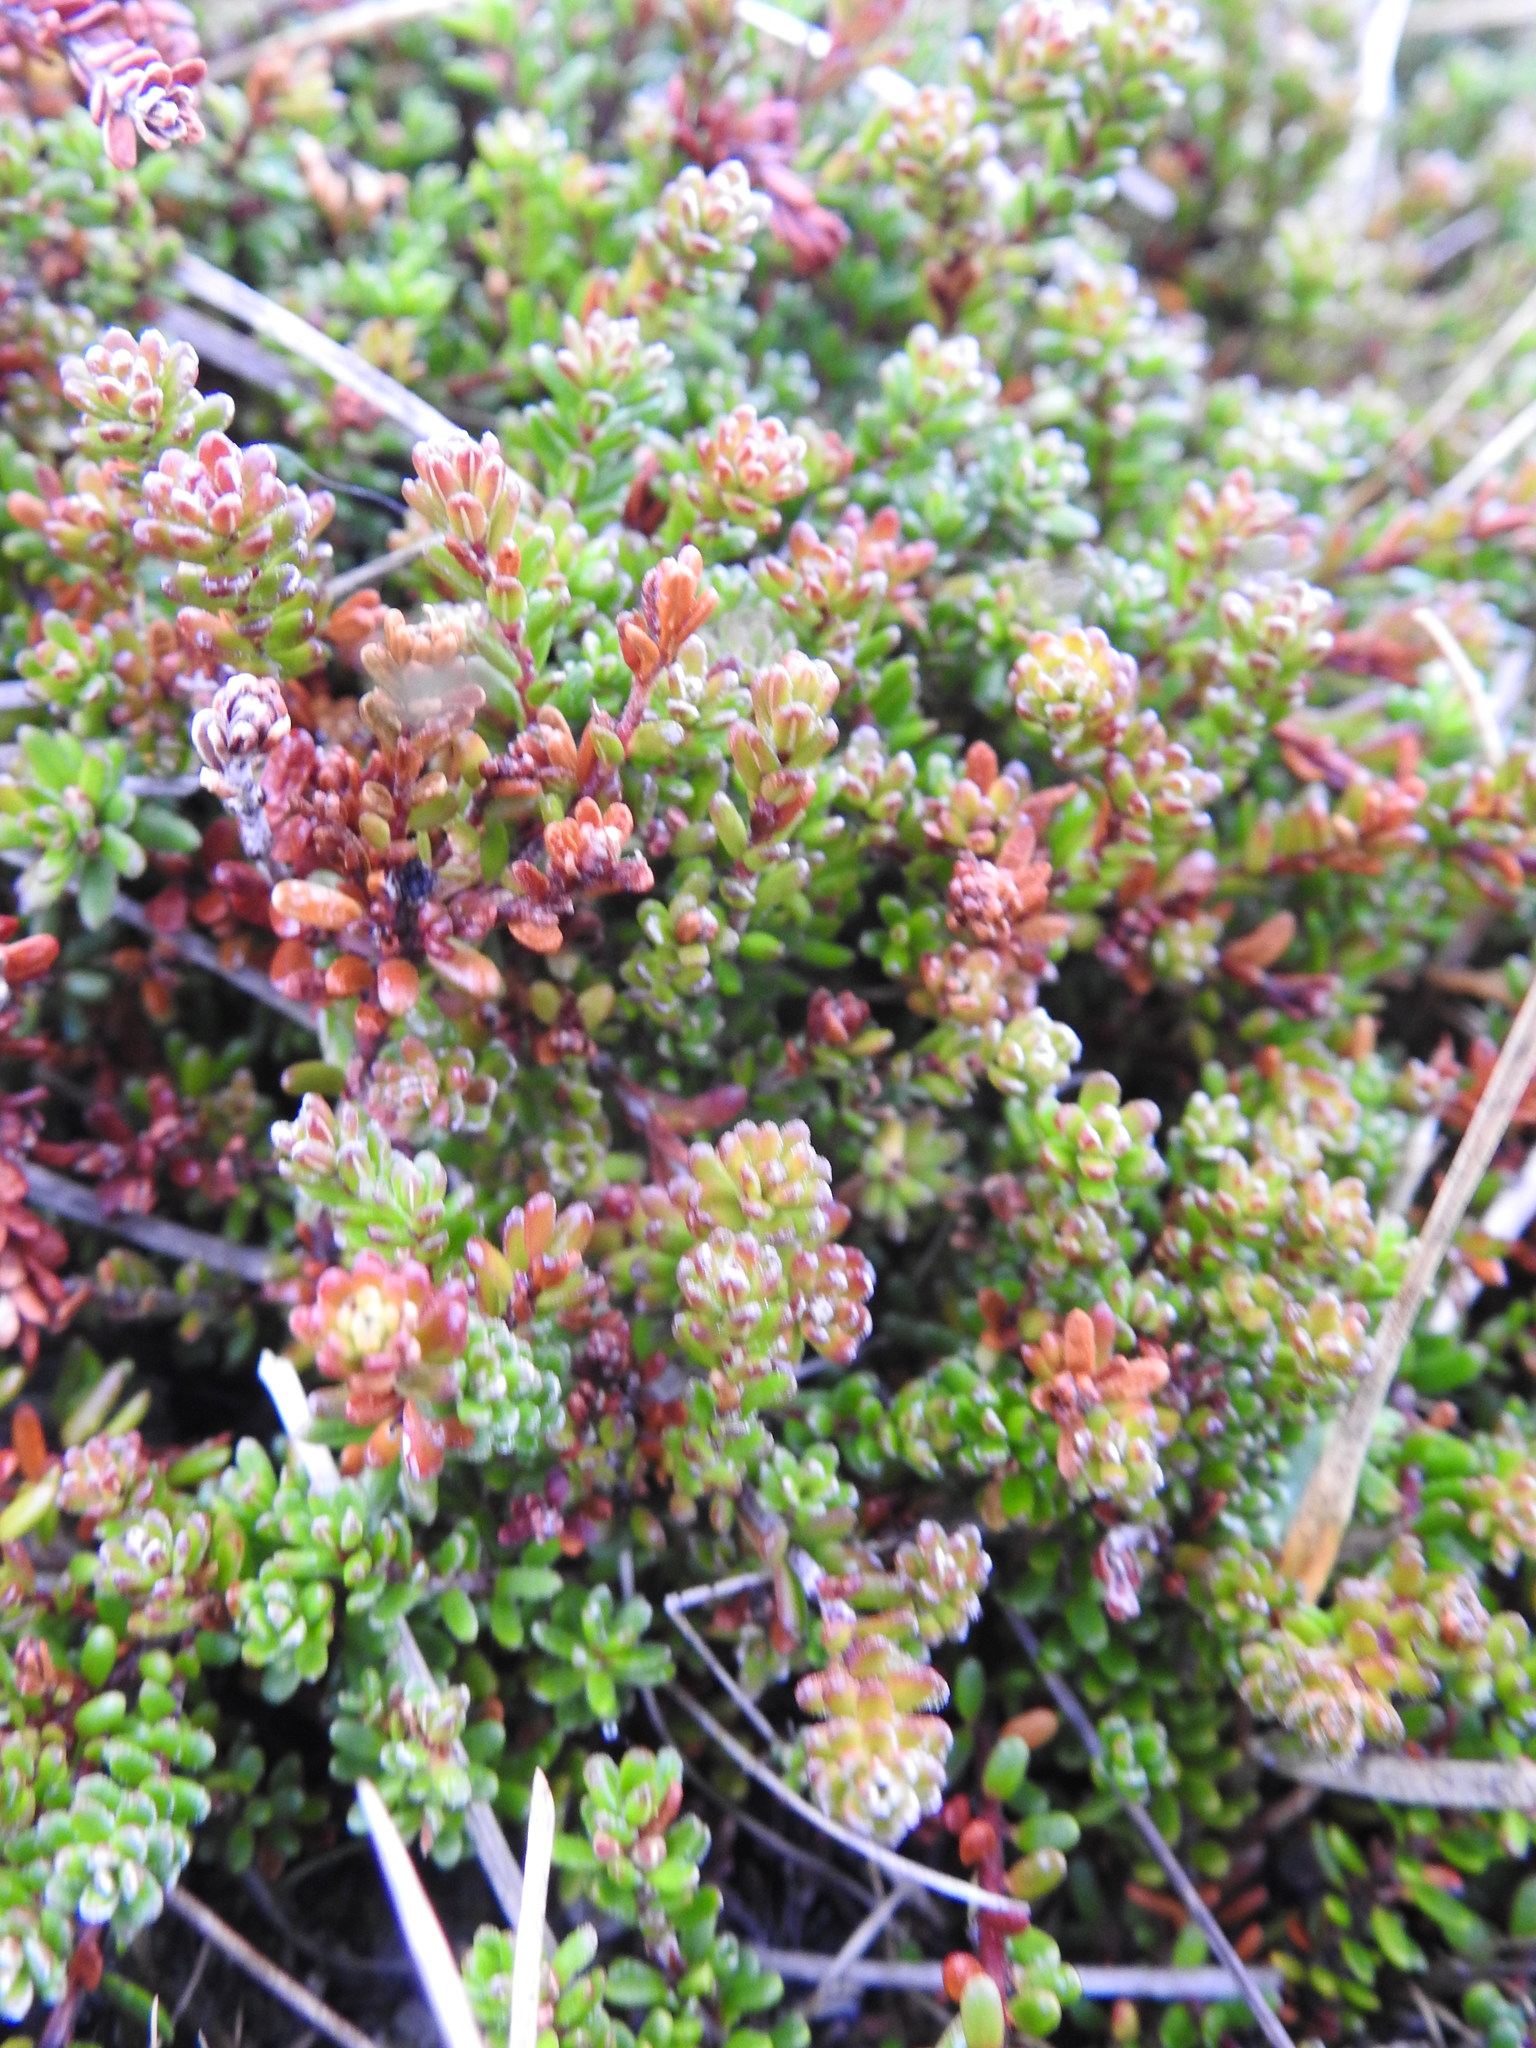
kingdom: Plantae
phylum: Tracheophyta
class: Magnoliopsida
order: Ericales
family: Ericaceae
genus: Empetrum
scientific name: Empetrum rubrum
